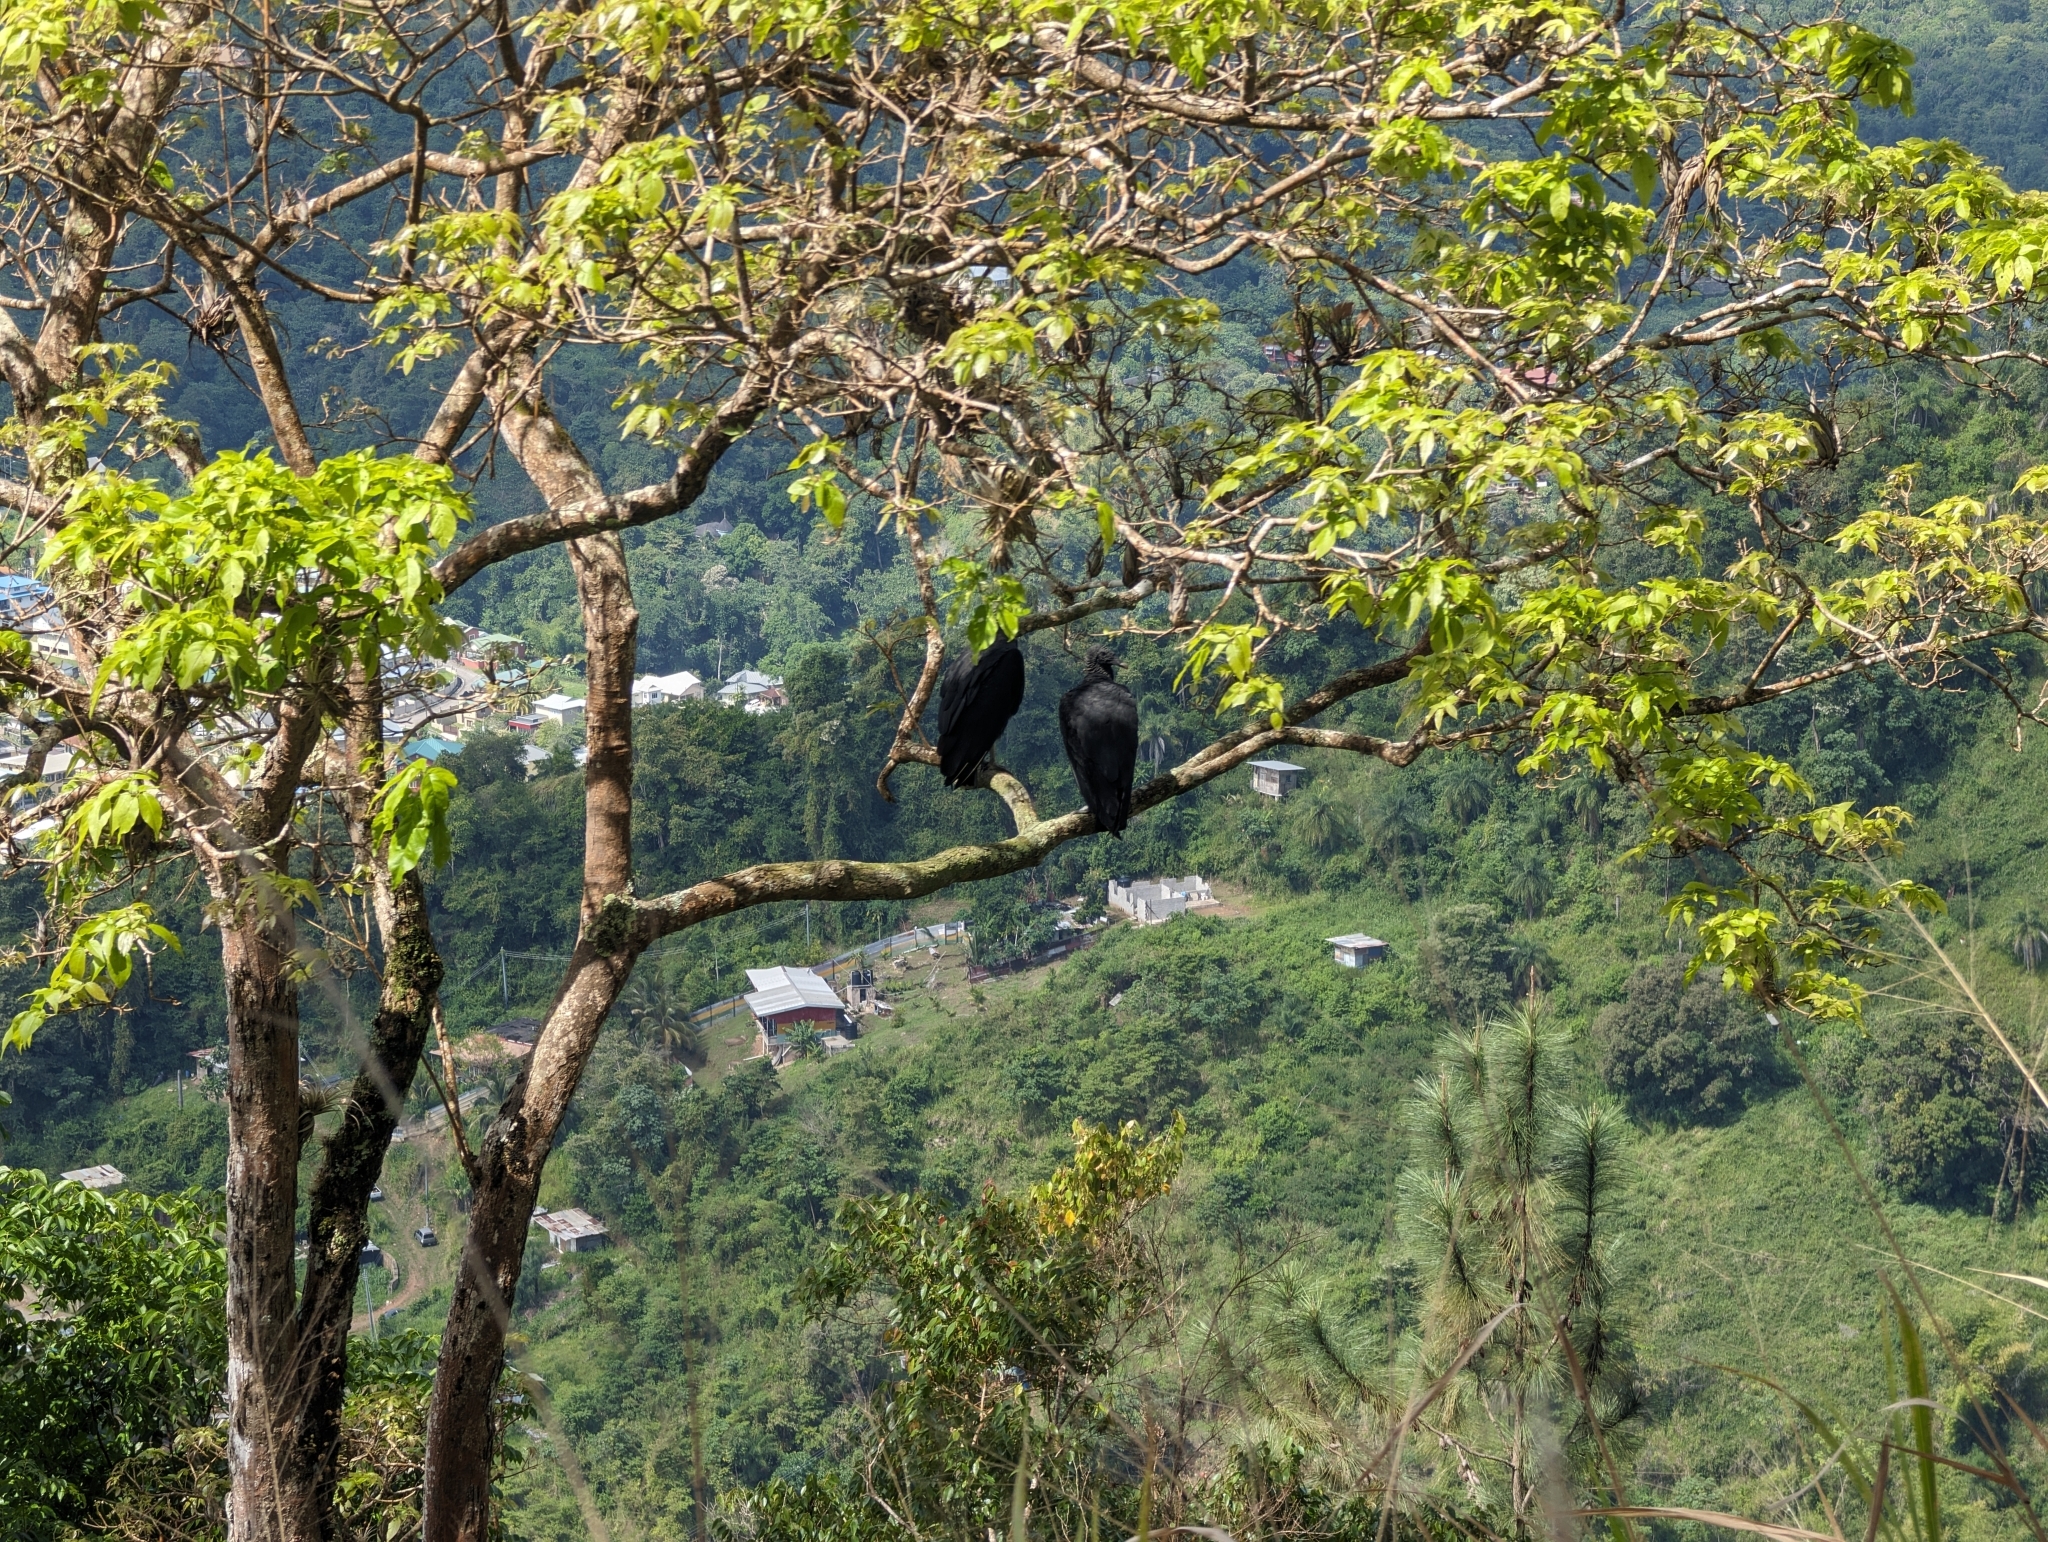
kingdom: Animalia
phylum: Chordata
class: Aves
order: Accipitriformes
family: Cathartidae
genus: Coragyps
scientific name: Coragyps atratus
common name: Black vulture
